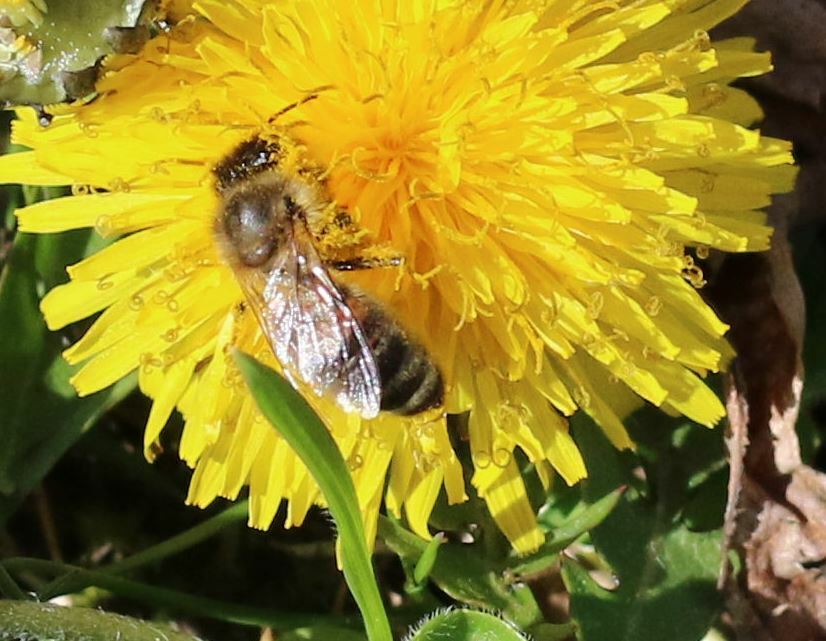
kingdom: Animalia
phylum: Arthropoda
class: Insecta
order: Hymenoptera
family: Apidae
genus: Apis
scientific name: Apis mellifera
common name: Honey bee
